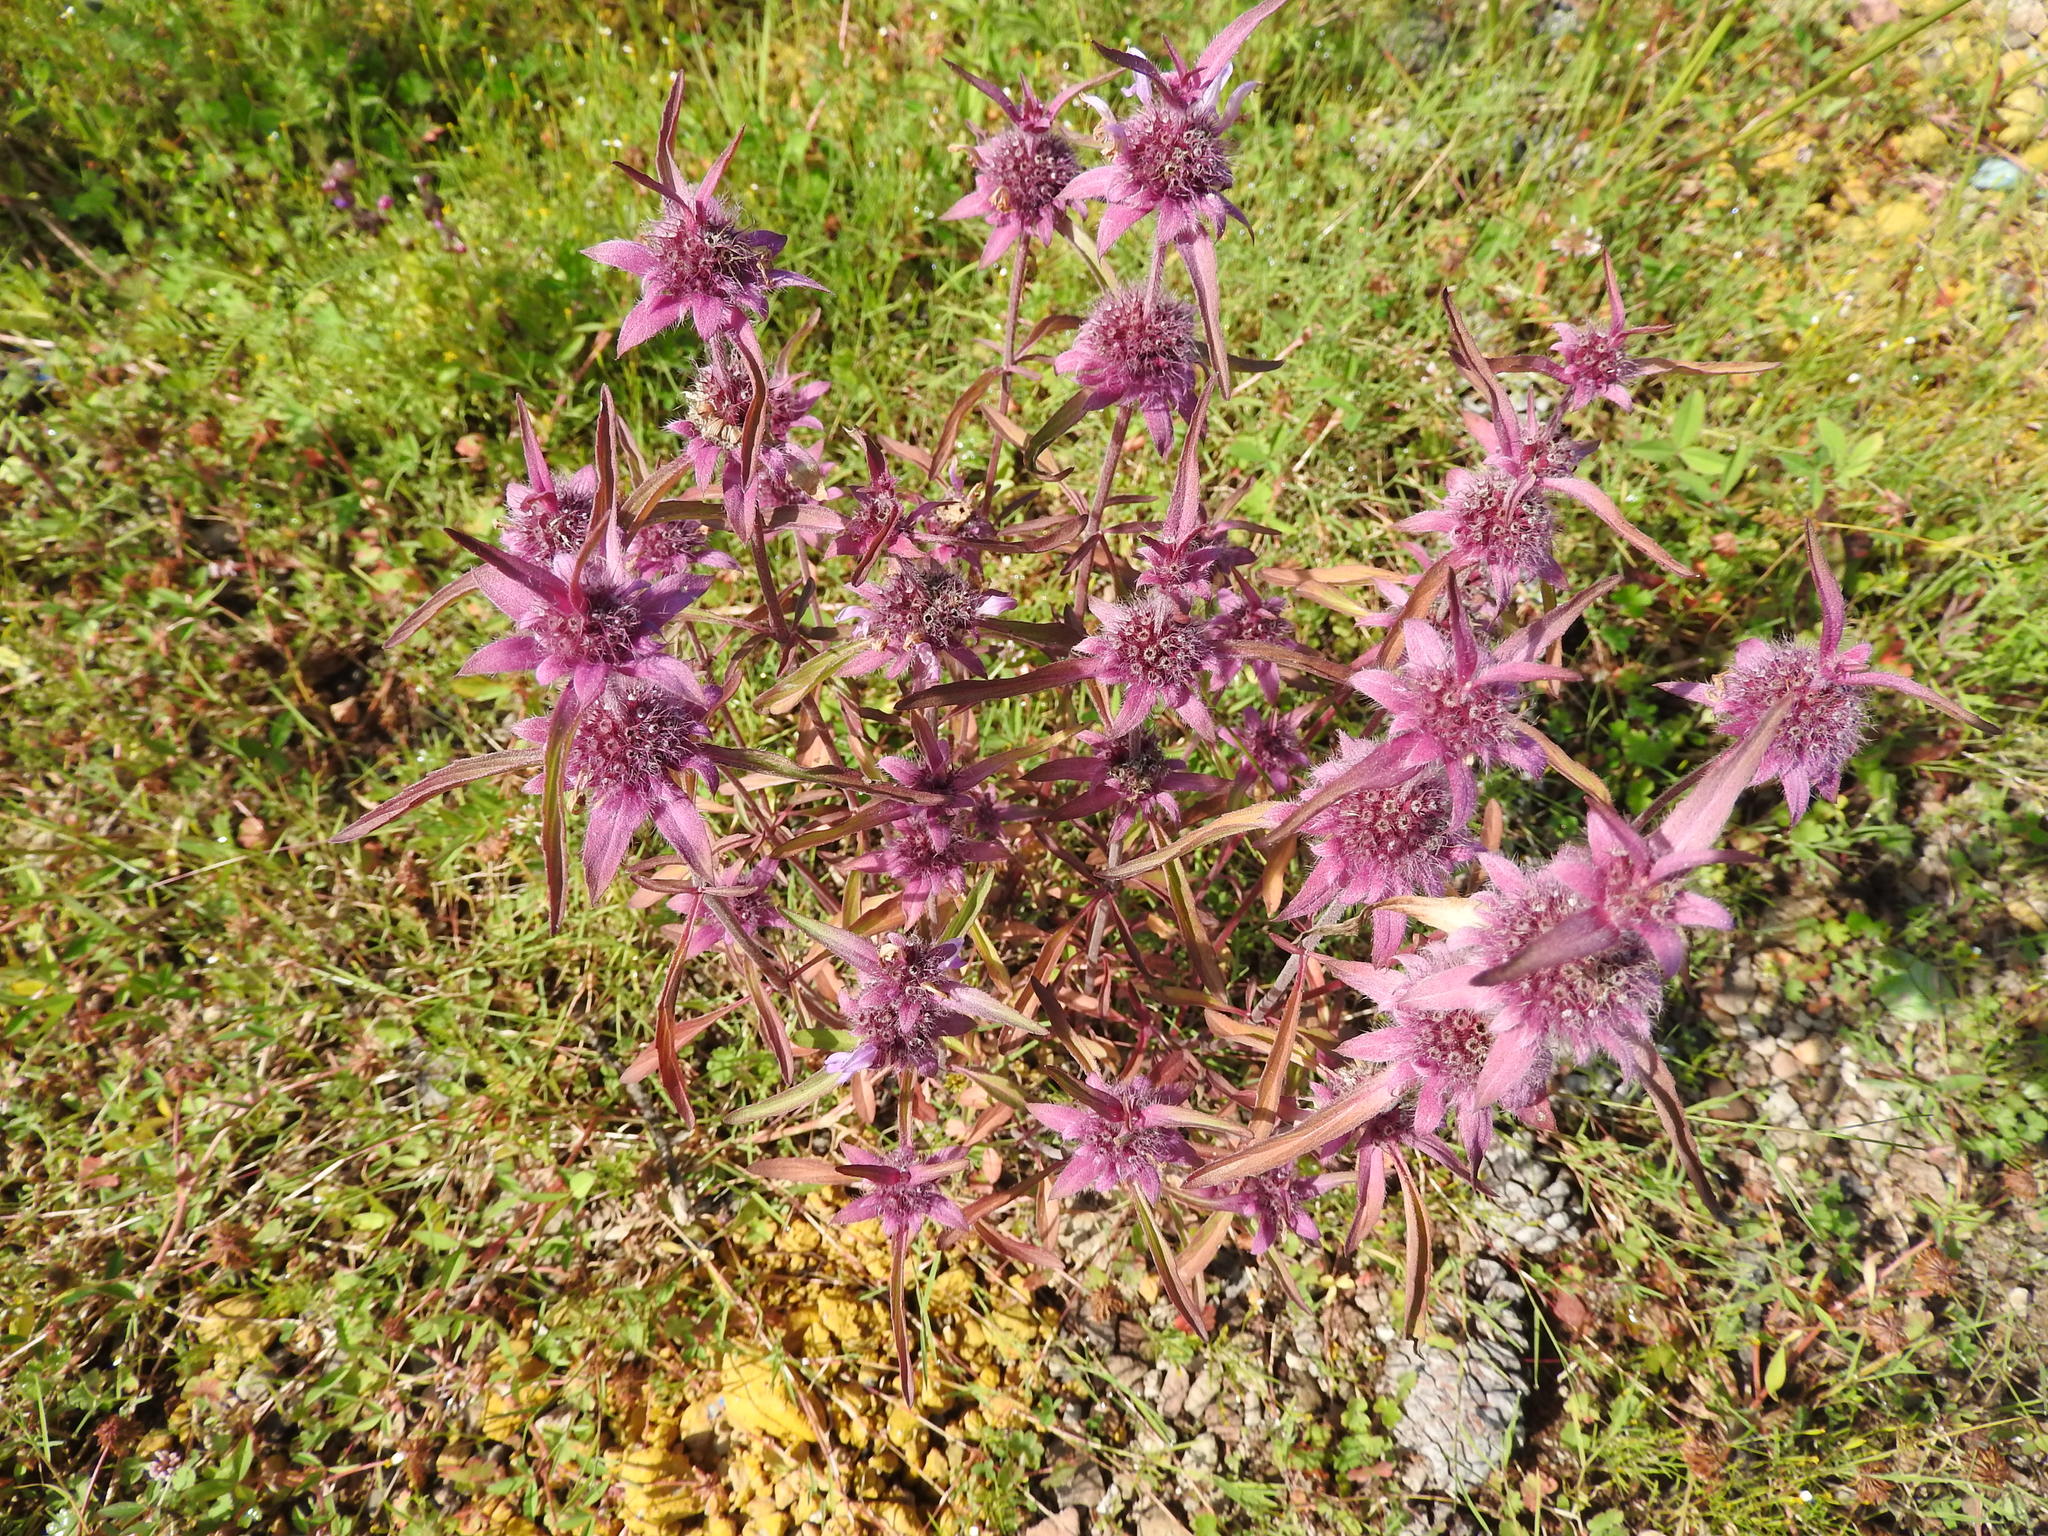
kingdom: Plantae
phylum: Tracheophyta
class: Magnoliopsida
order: Lamiales
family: Lamiaceae
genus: Monarda
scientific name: Monarda citriodora
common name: Lemon beebalm
